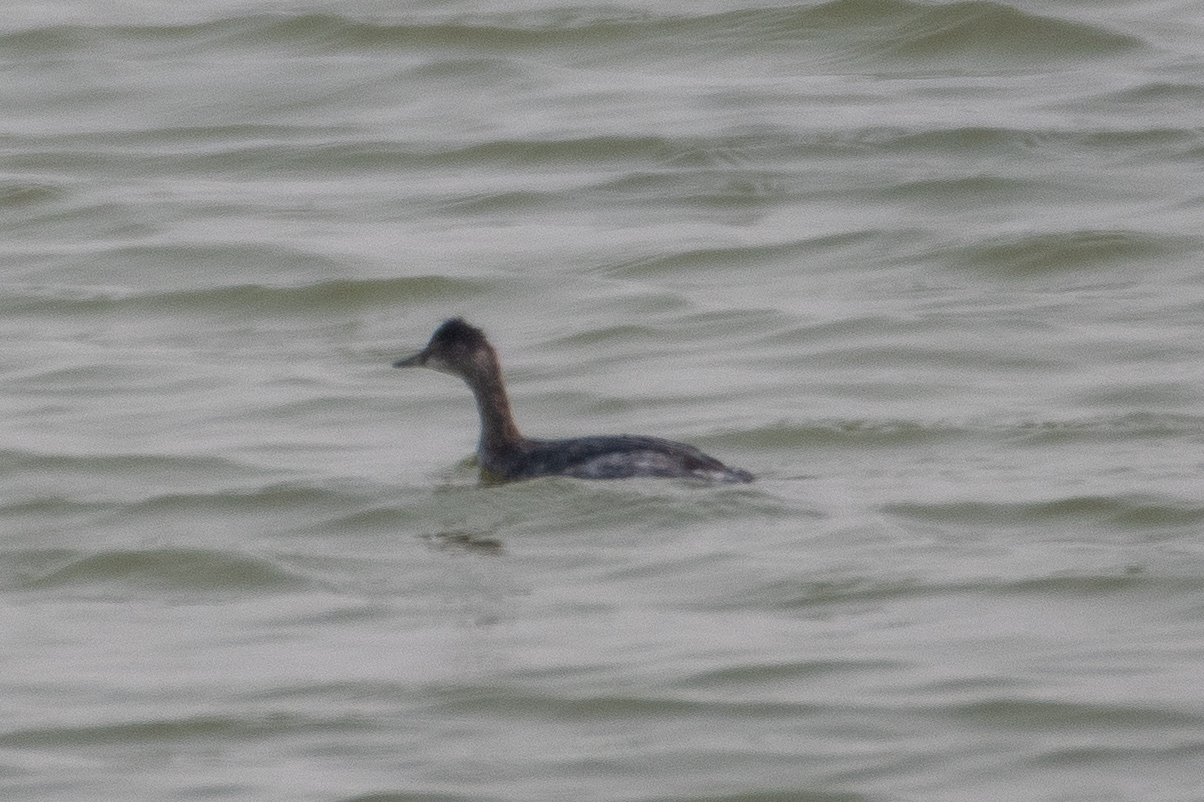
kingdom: Animalia
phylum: Chordata
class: Aves
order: Podicipediformes
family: Podicipedidae
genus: Podiceps
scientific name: Podiceps nigricollis
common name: Black-necked grebe
